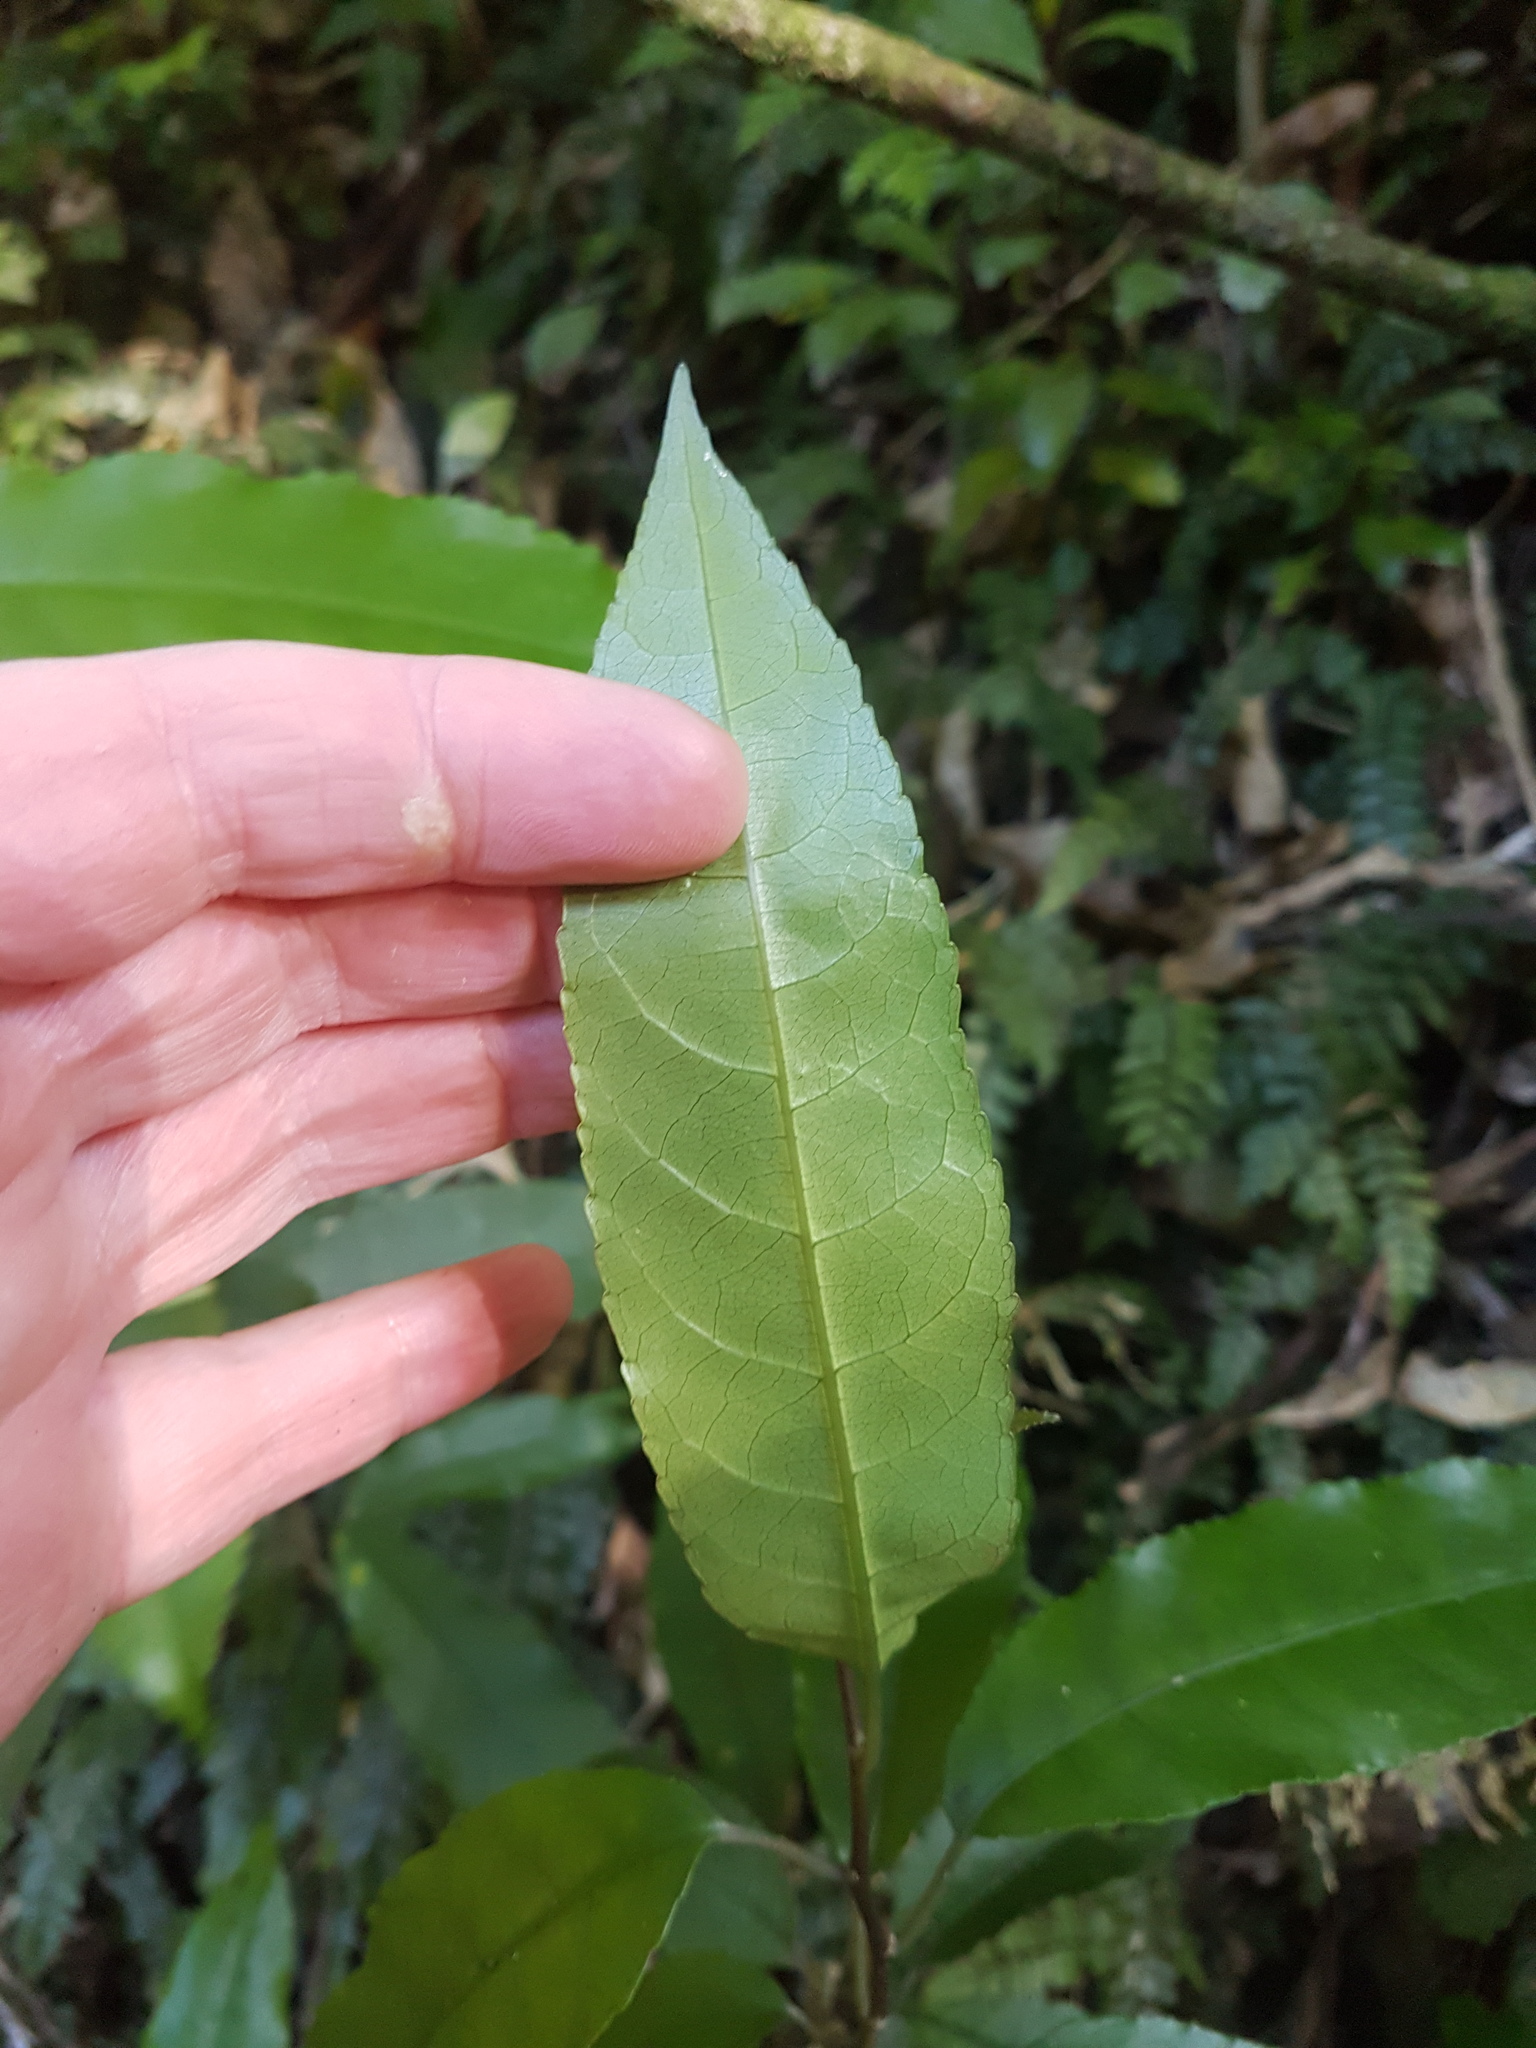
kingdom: Plantae
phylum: Tracheophyta
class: Magnoliopsida
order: Malpighiales
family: Violaceae
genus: Melicytus
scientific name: Melicytus ramiflorus
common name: Mahoe
